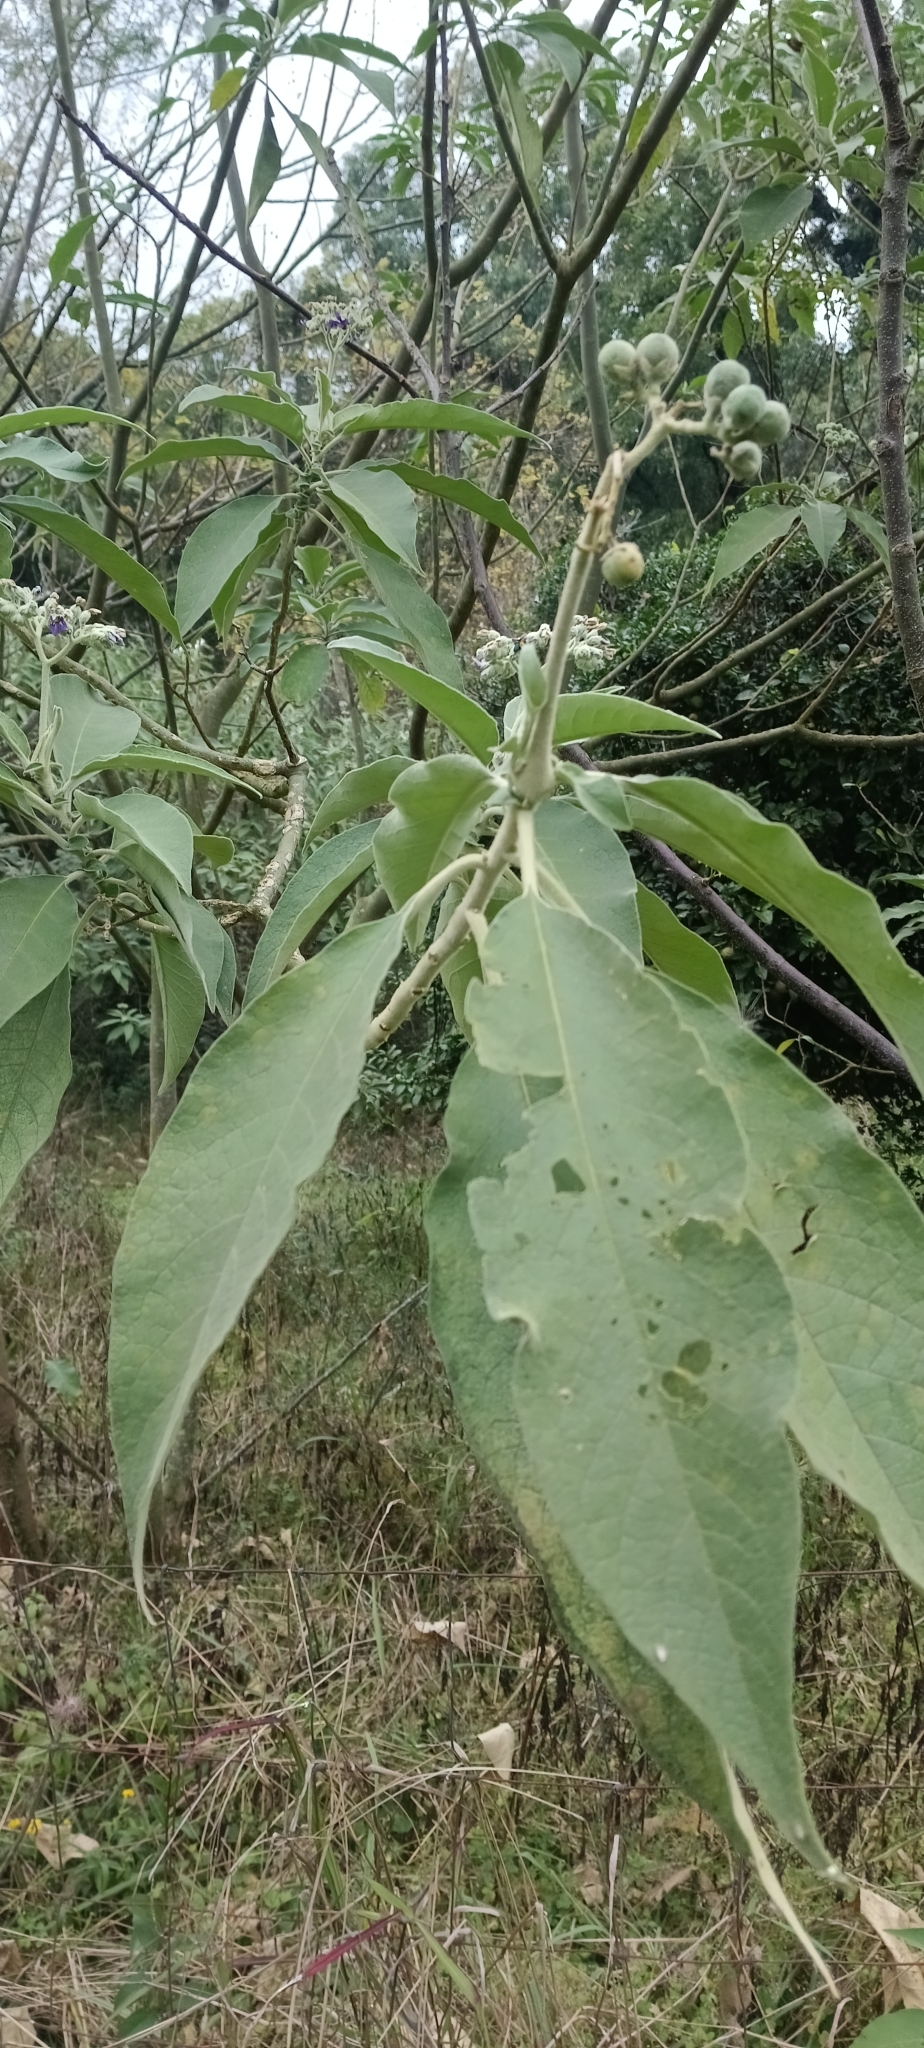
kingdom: Plantae
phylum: Tracheophyta
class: Magnoliopsida
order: Solanales
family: Solanaceae
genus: Solanum
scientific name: Solanum mauritianum
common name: Earleaf nightshade
